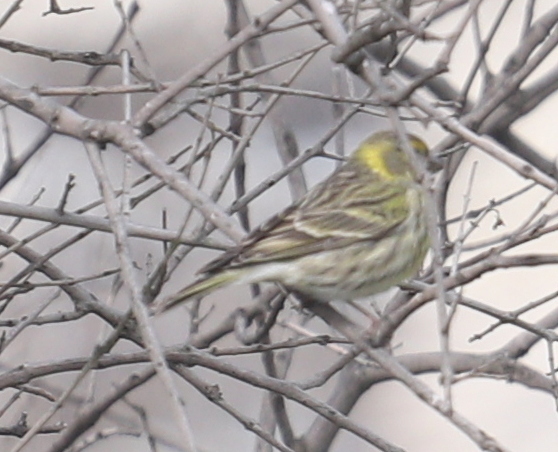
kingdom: Animalia
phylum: Chordata
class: Aves
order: Passeriformes
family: Fringillidae
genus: Serinus
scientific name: Serinus serinus
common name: European serin
